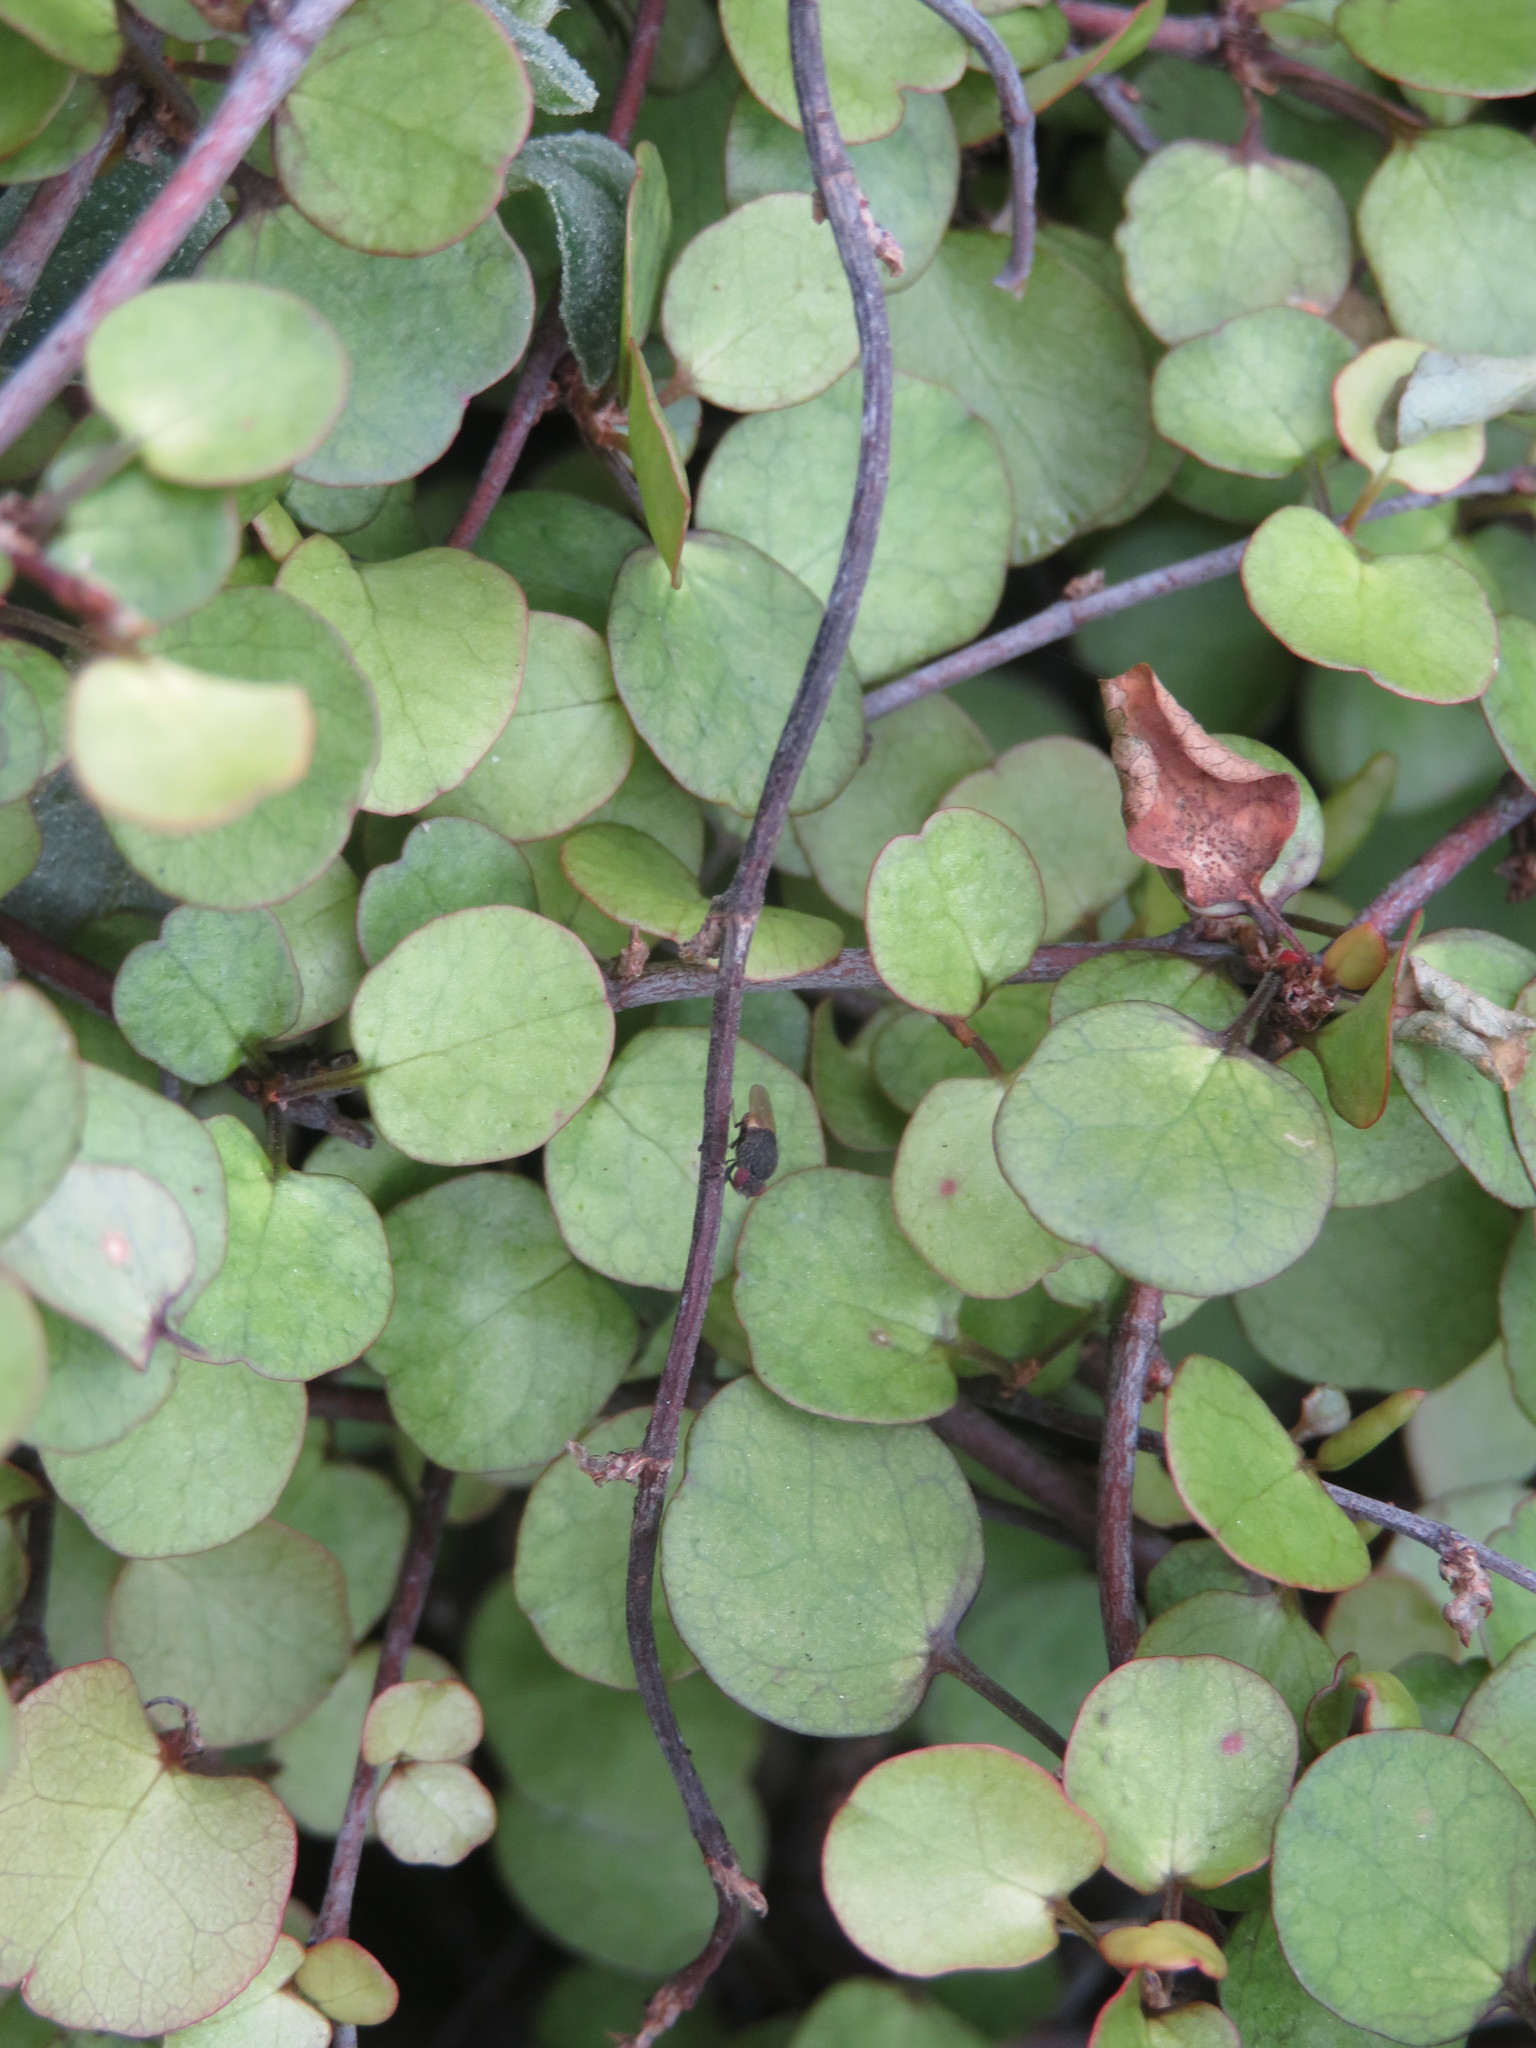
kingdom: Animalia
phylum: Arthropoda
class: Insecta
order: Diptera
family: Heleomyzidae
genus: Allophylina
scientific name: Allophylina albitarsis
